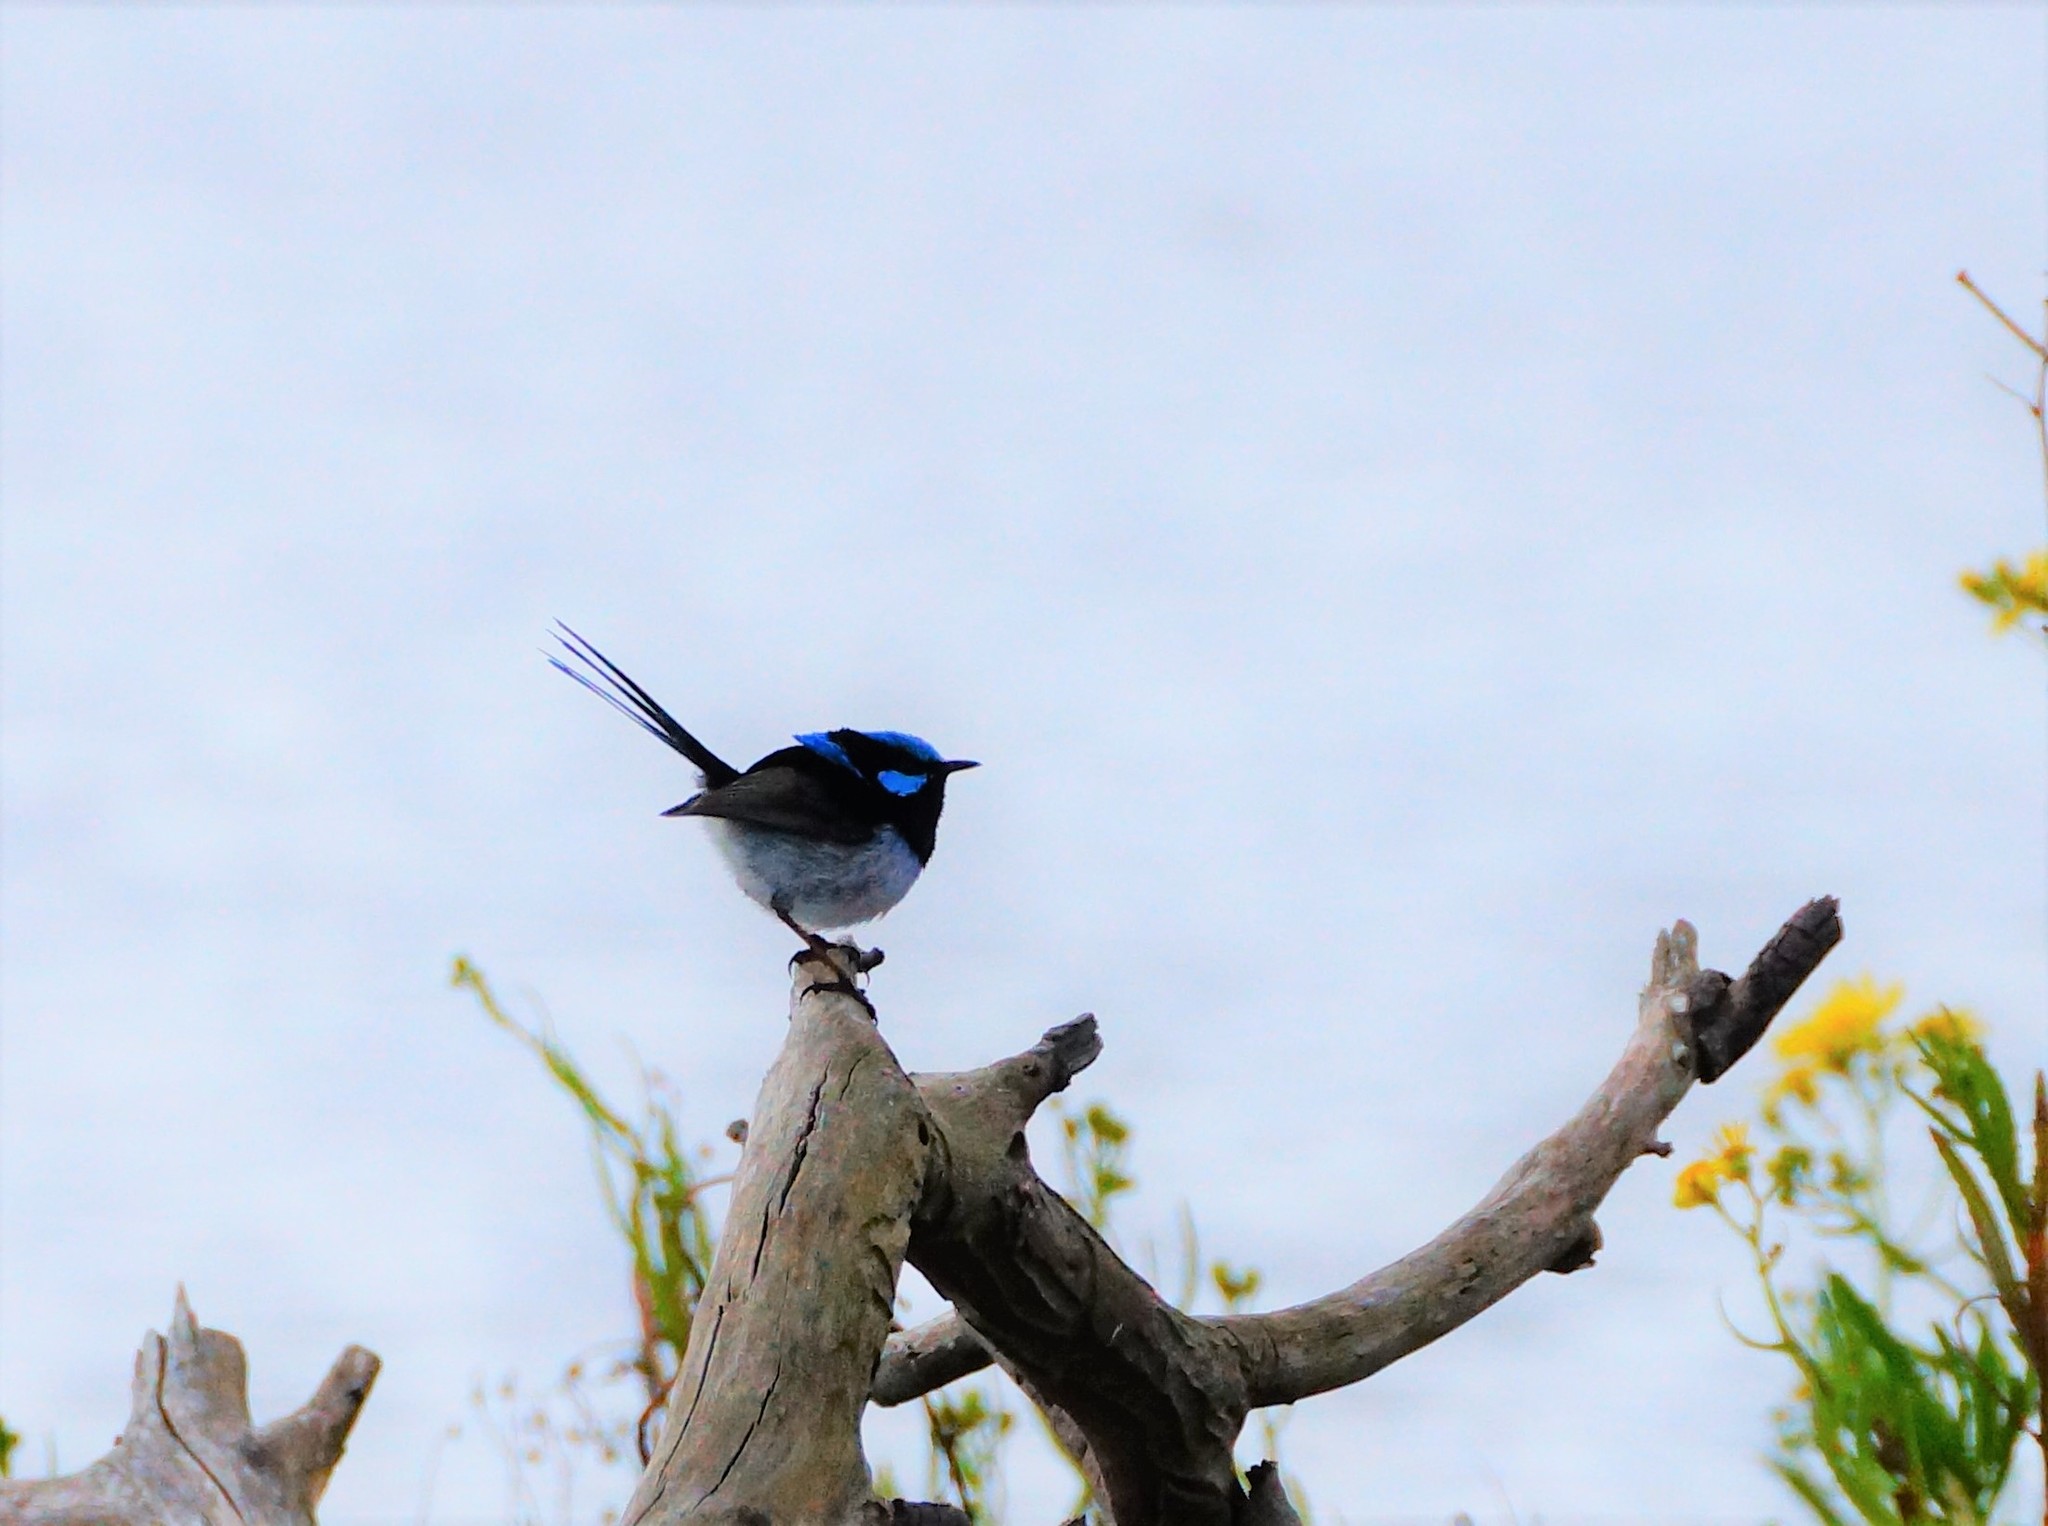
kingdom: Animalia
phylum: Chordata
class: Aves
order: Passeriformes
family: Maluridae
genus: Malurus
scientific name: Malurus cyaneus
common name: Superb fairywren
